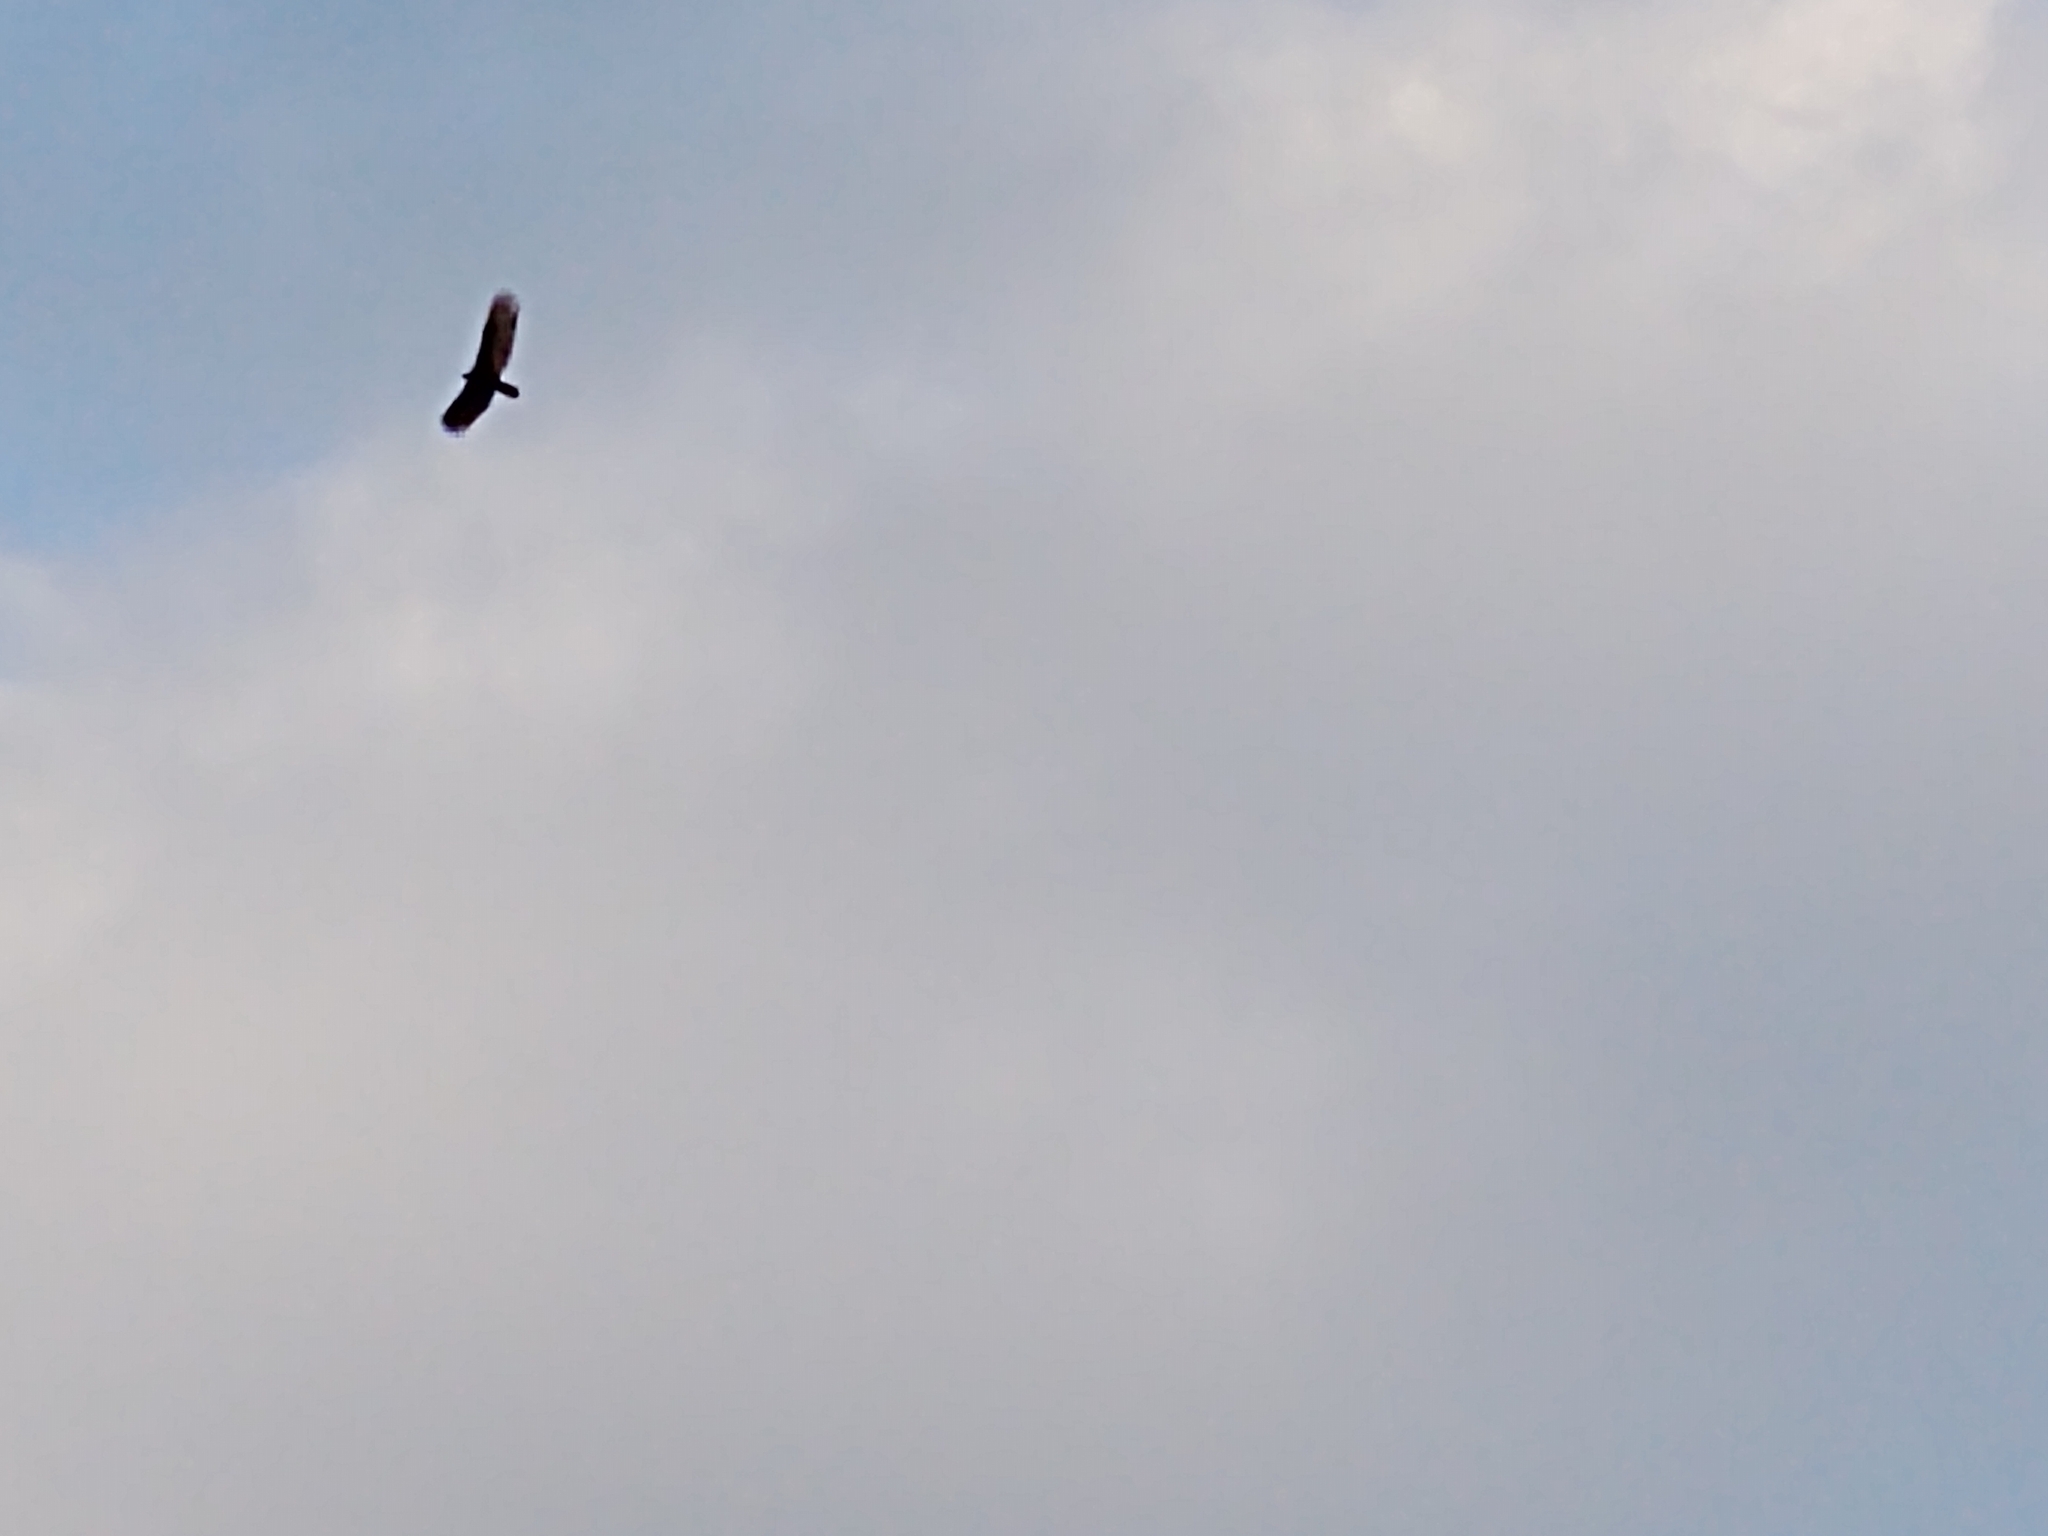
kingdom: Animalia
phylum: Chordata
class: Aves
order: Accipitriformes
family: Cathartidae
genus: Cathartes
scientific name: Cathartes aura
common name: Turkey vulture
